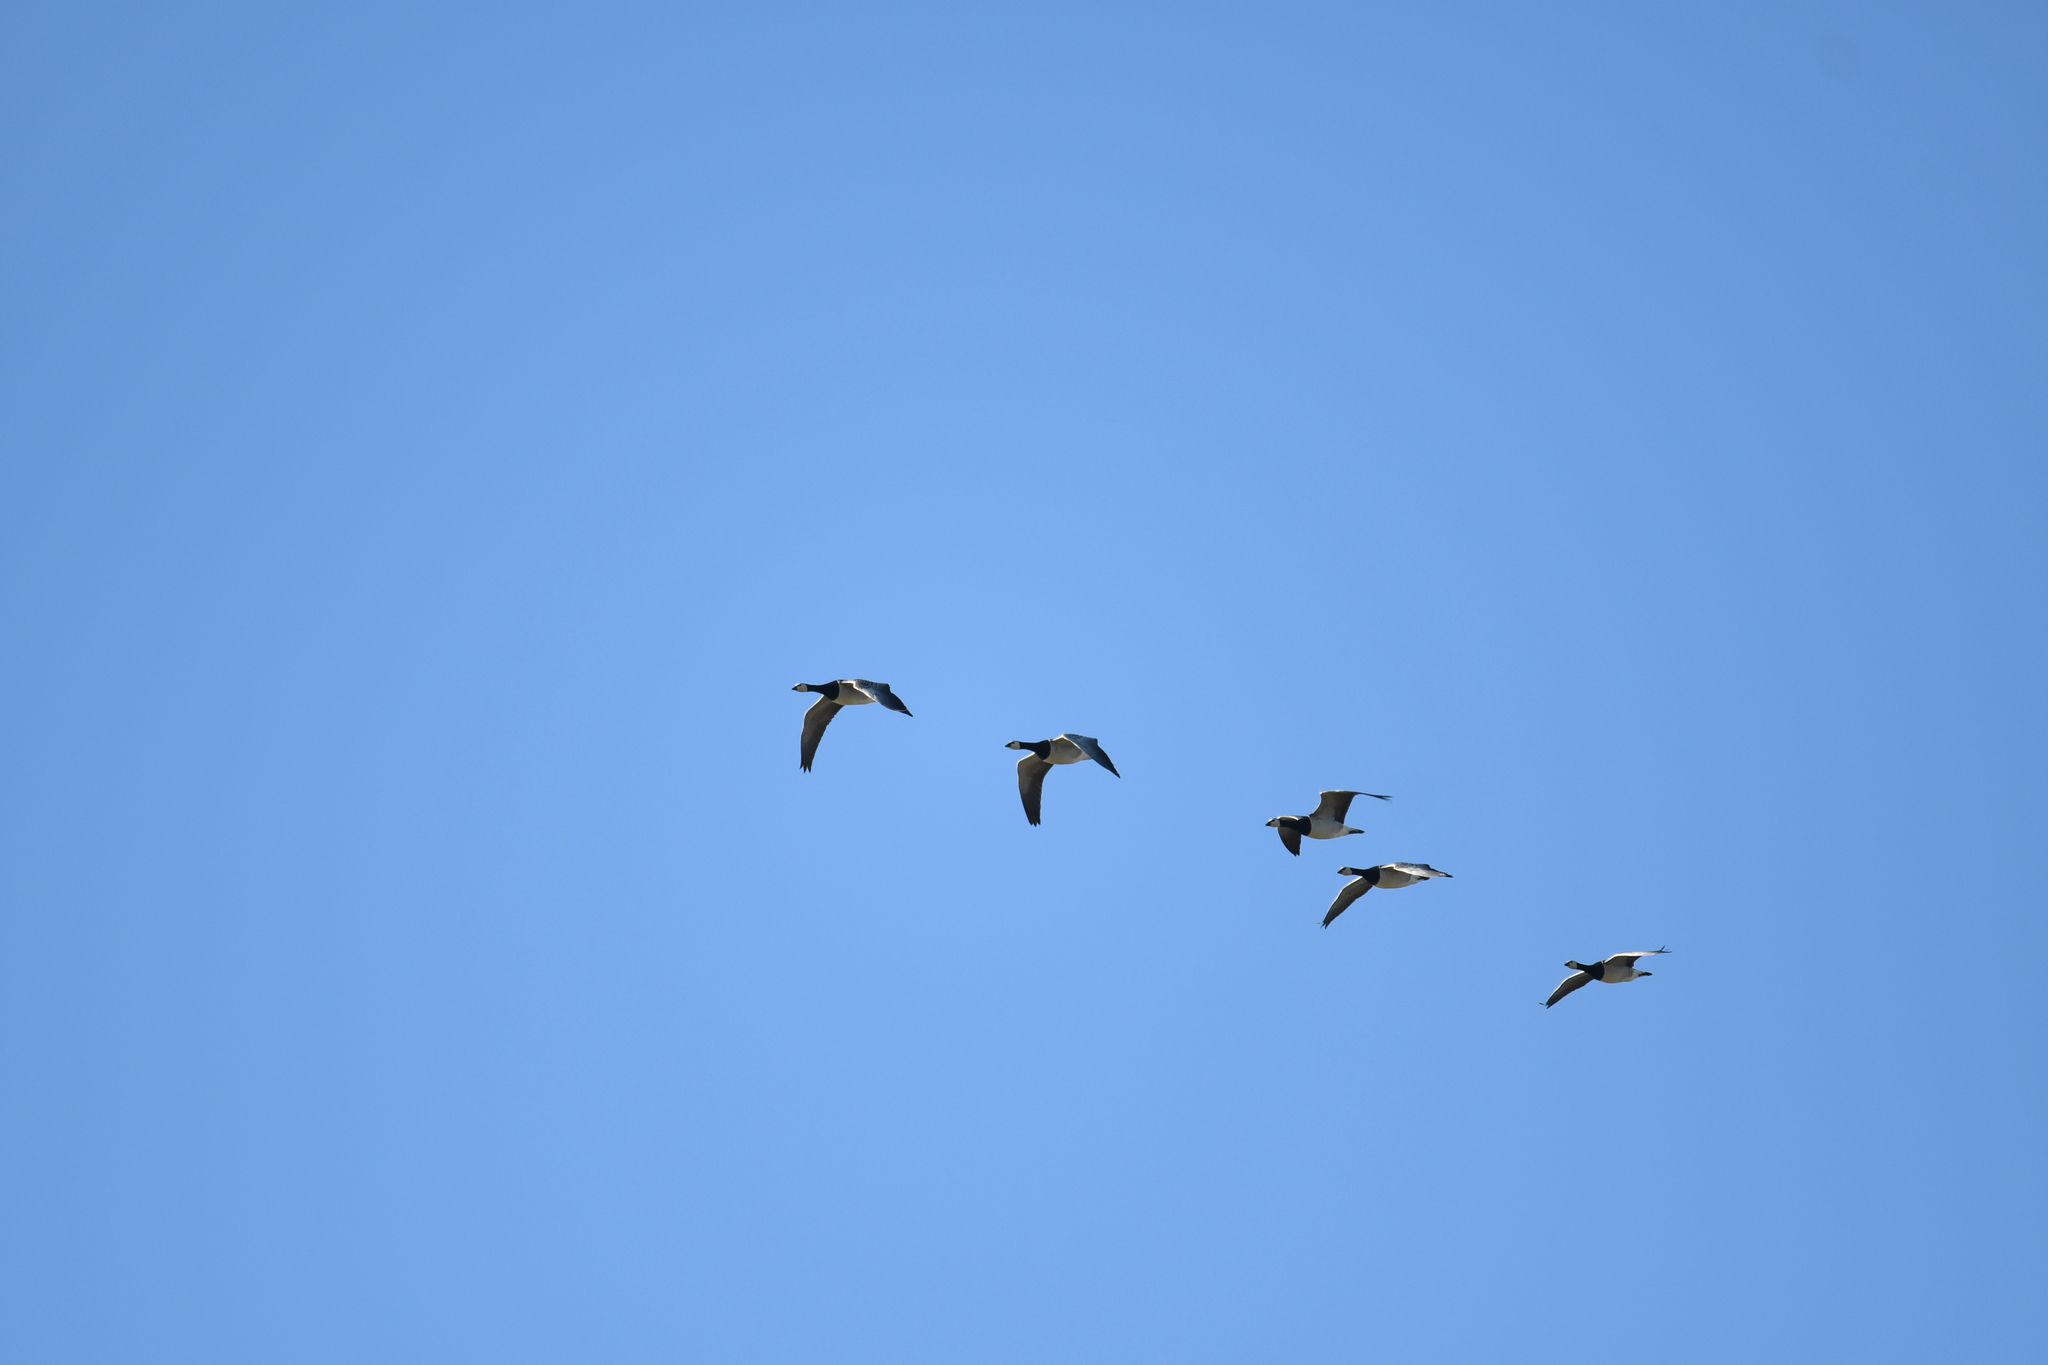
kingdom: Animalia
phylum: Chordata
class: Aves
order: Anseriformes
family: Anatidae
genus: Branta
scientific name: Branta leucopsis
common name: Barnacle goose
